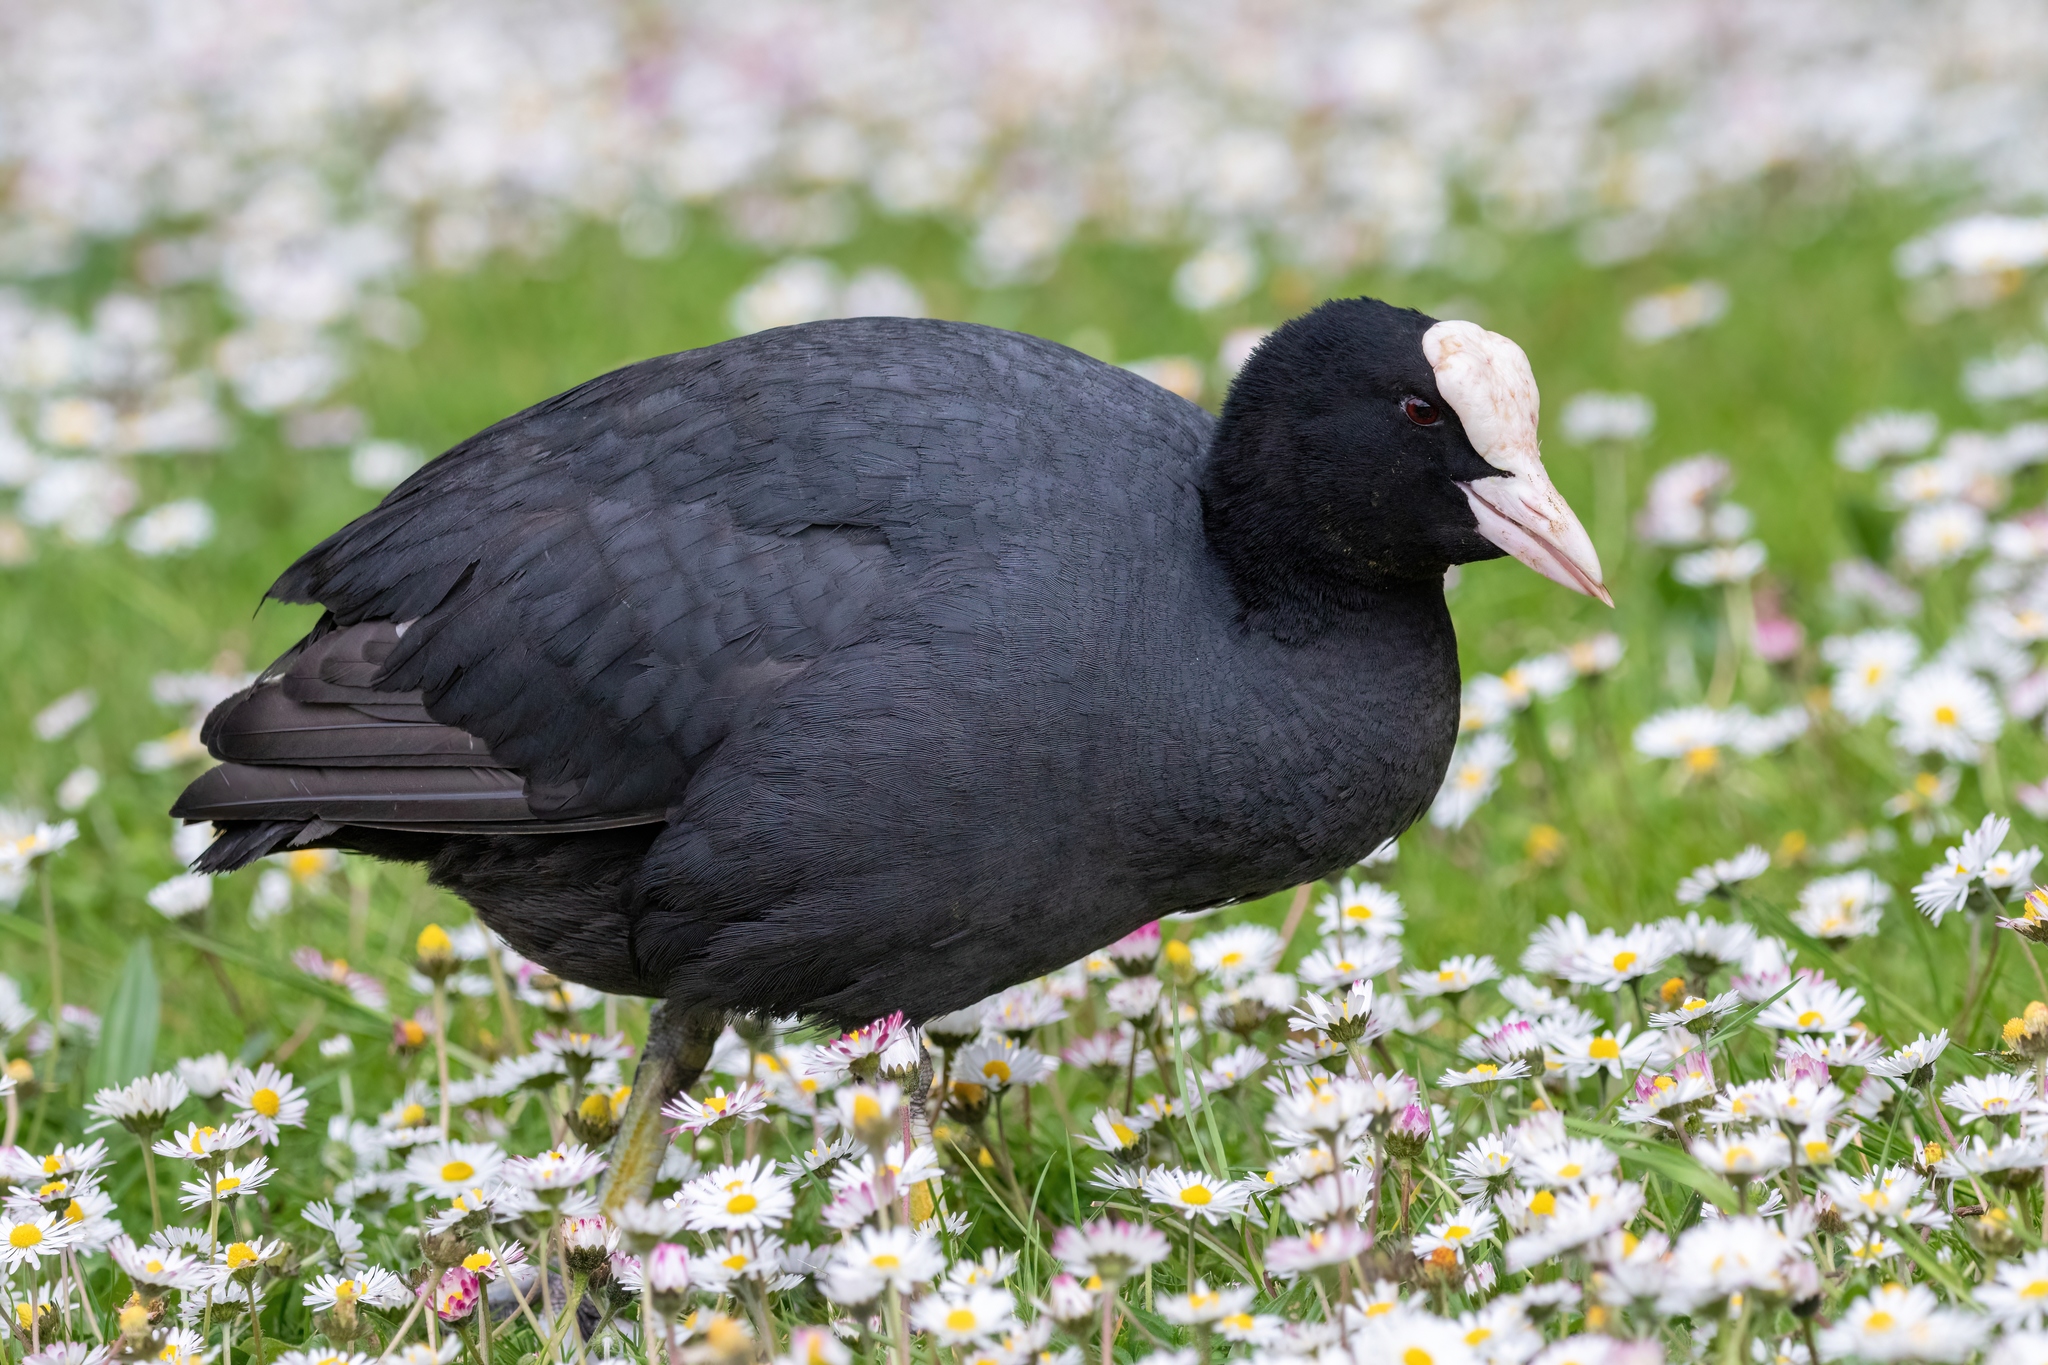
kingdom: Animalia
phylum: Chordata
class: Aves
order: Gruiformes
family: Rallidae
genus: Fulica
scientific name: Fulica atra
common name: Eurasian coot
